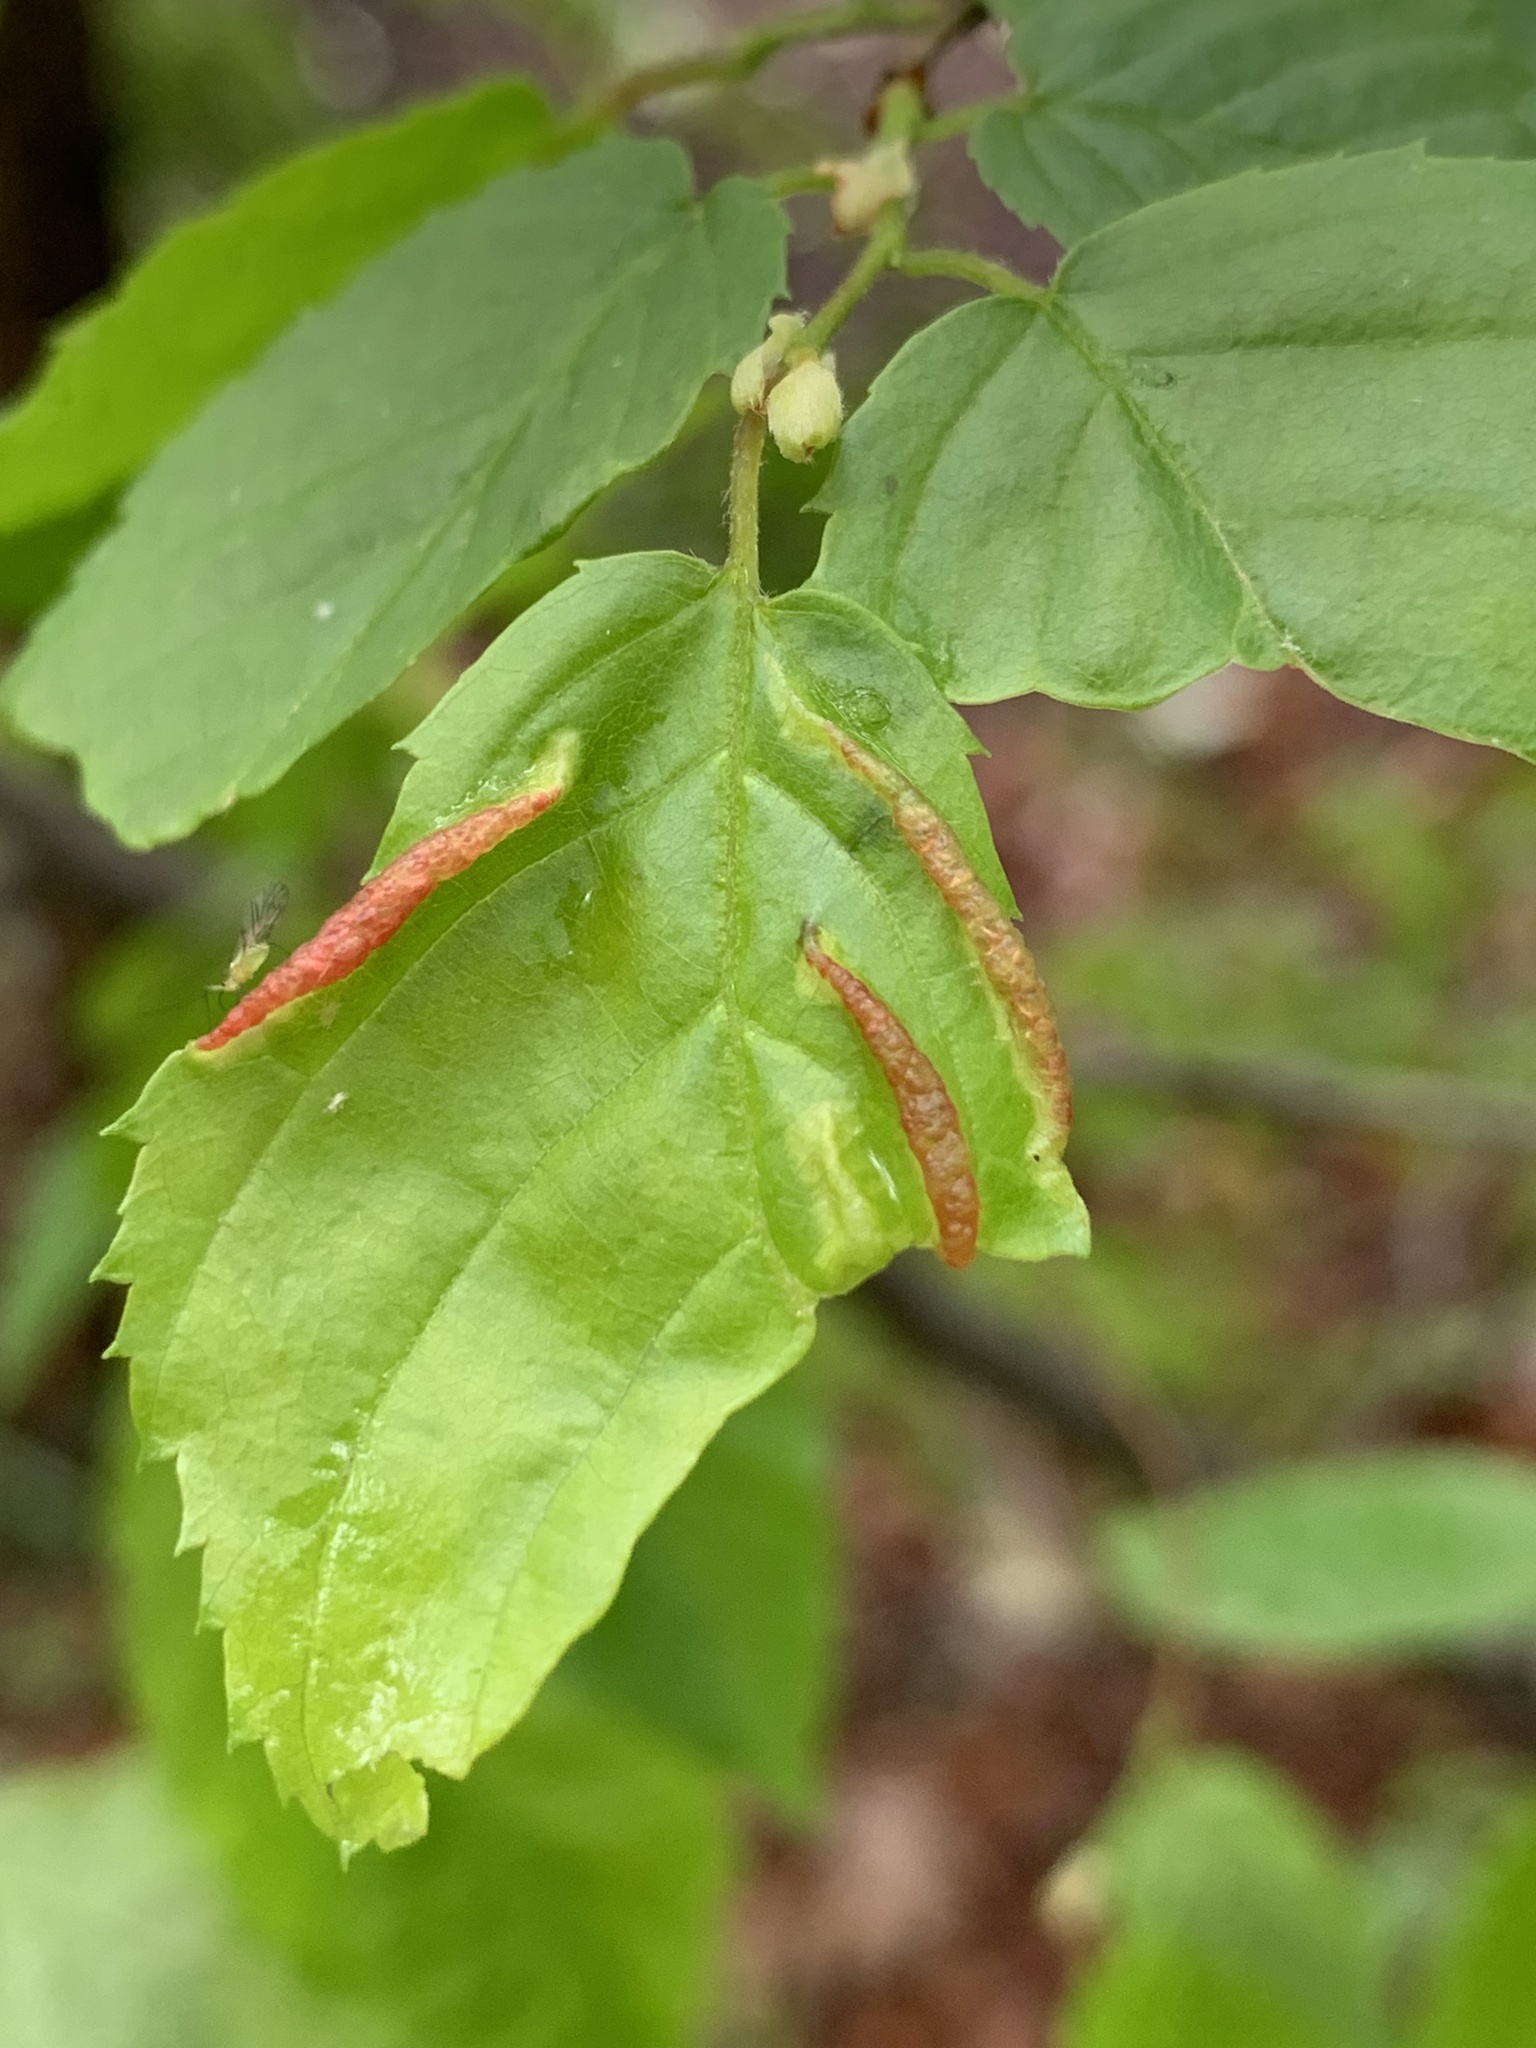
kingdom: Animalia
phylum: Arthropoda
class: Insecta
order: Diptera
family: Cecidomyiidae
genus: Dasineura
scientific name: Dasineura pudibunda
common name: Hornbeam leaf gall midge
